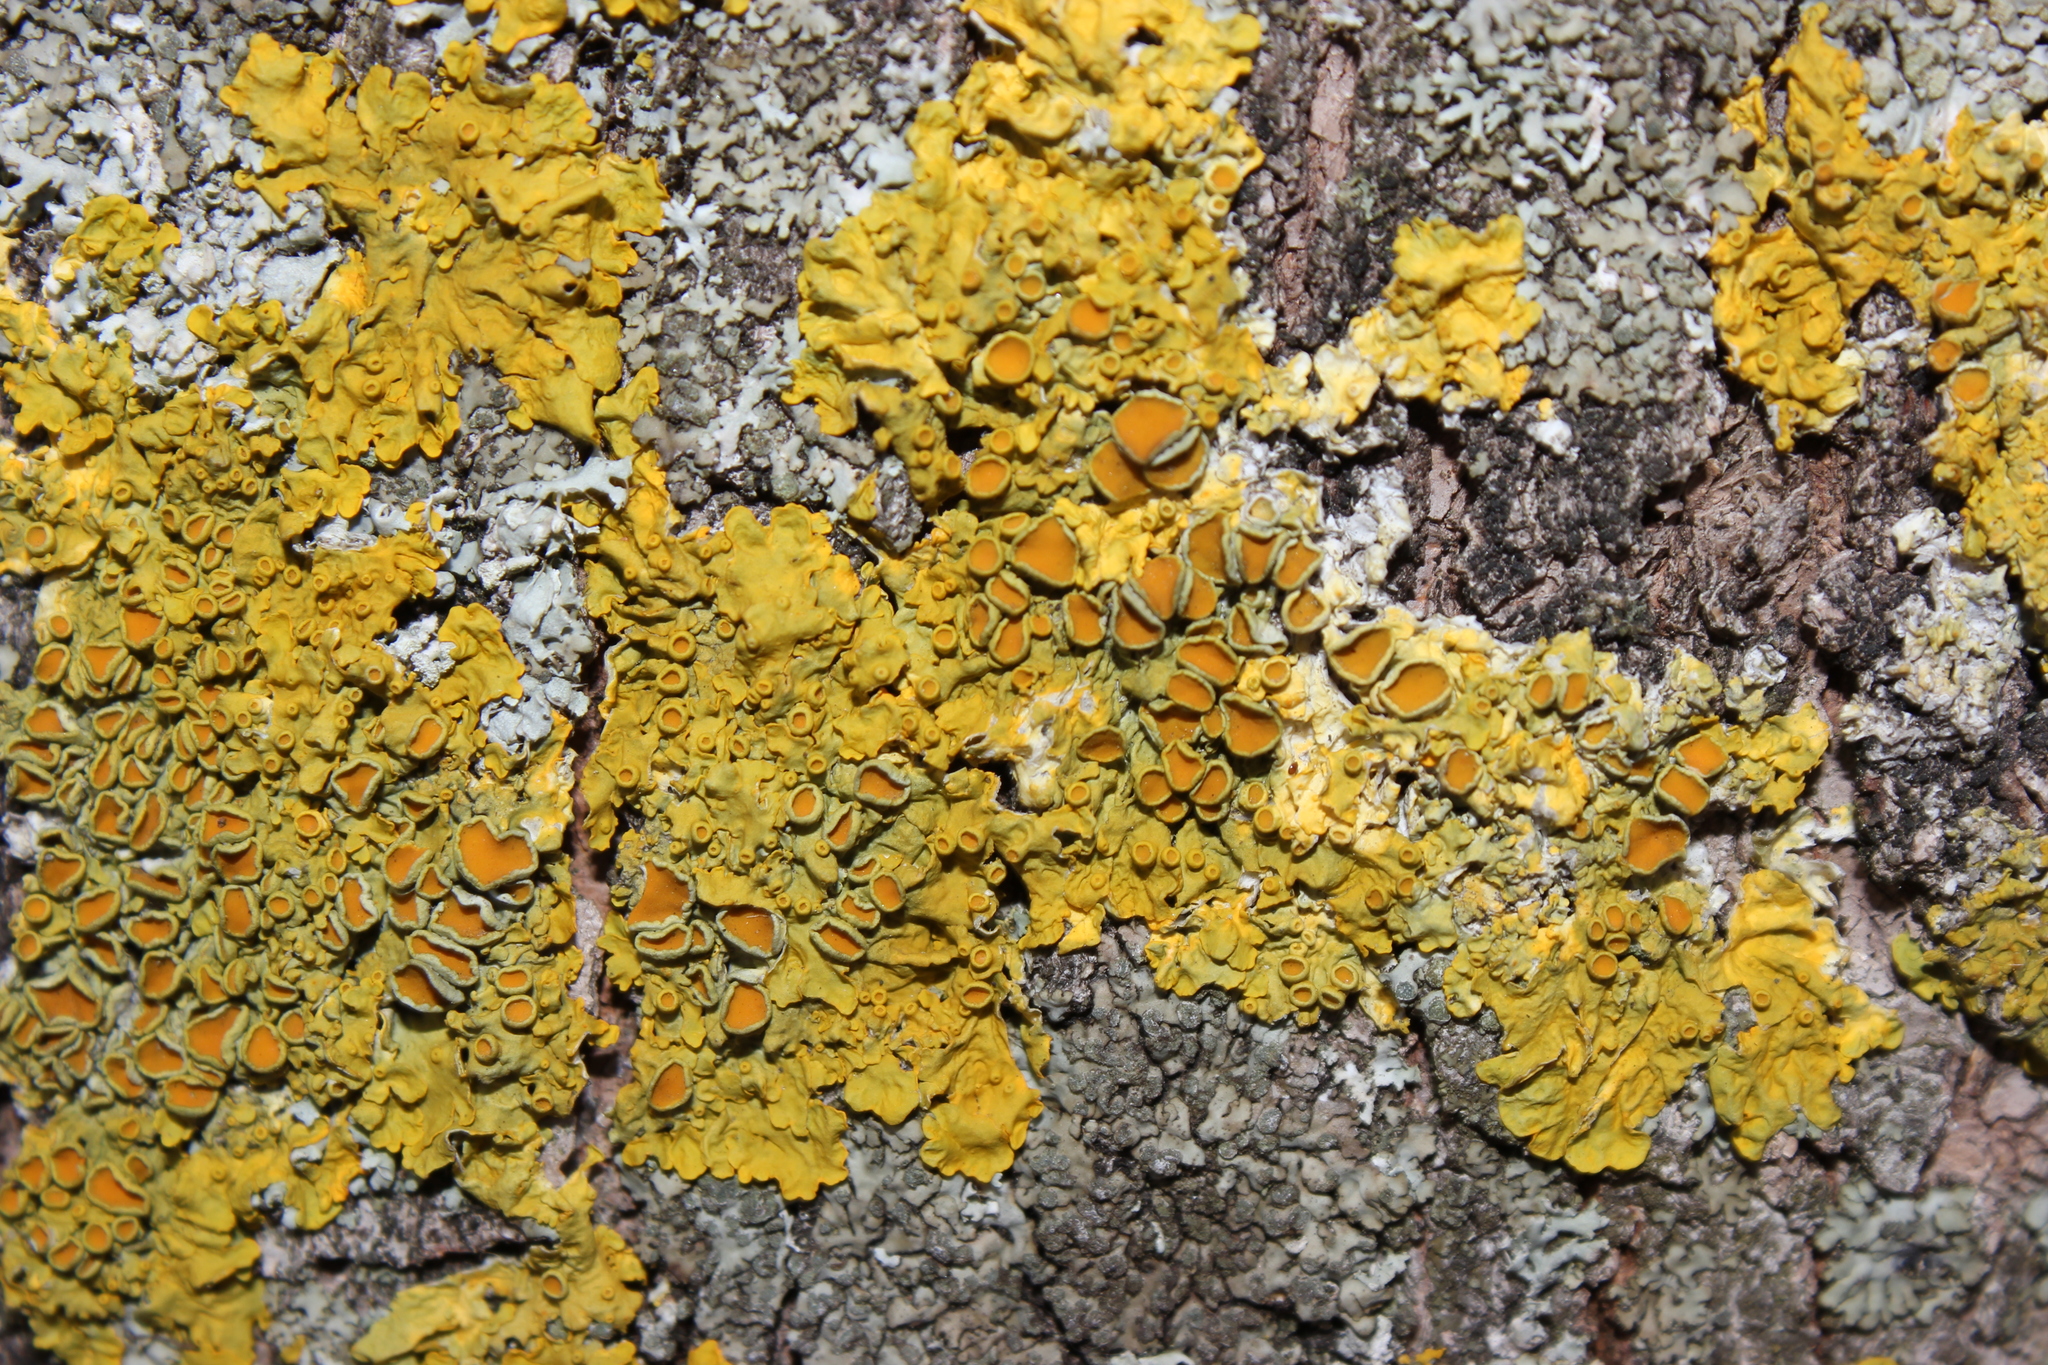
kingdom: Fungi
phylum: Ascomycota
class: Lecanoromycetes
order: Teloschistales
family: Teloschistaceae
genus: Xanthoria
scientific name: Xanthoria parietina
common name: Common orange lichen
